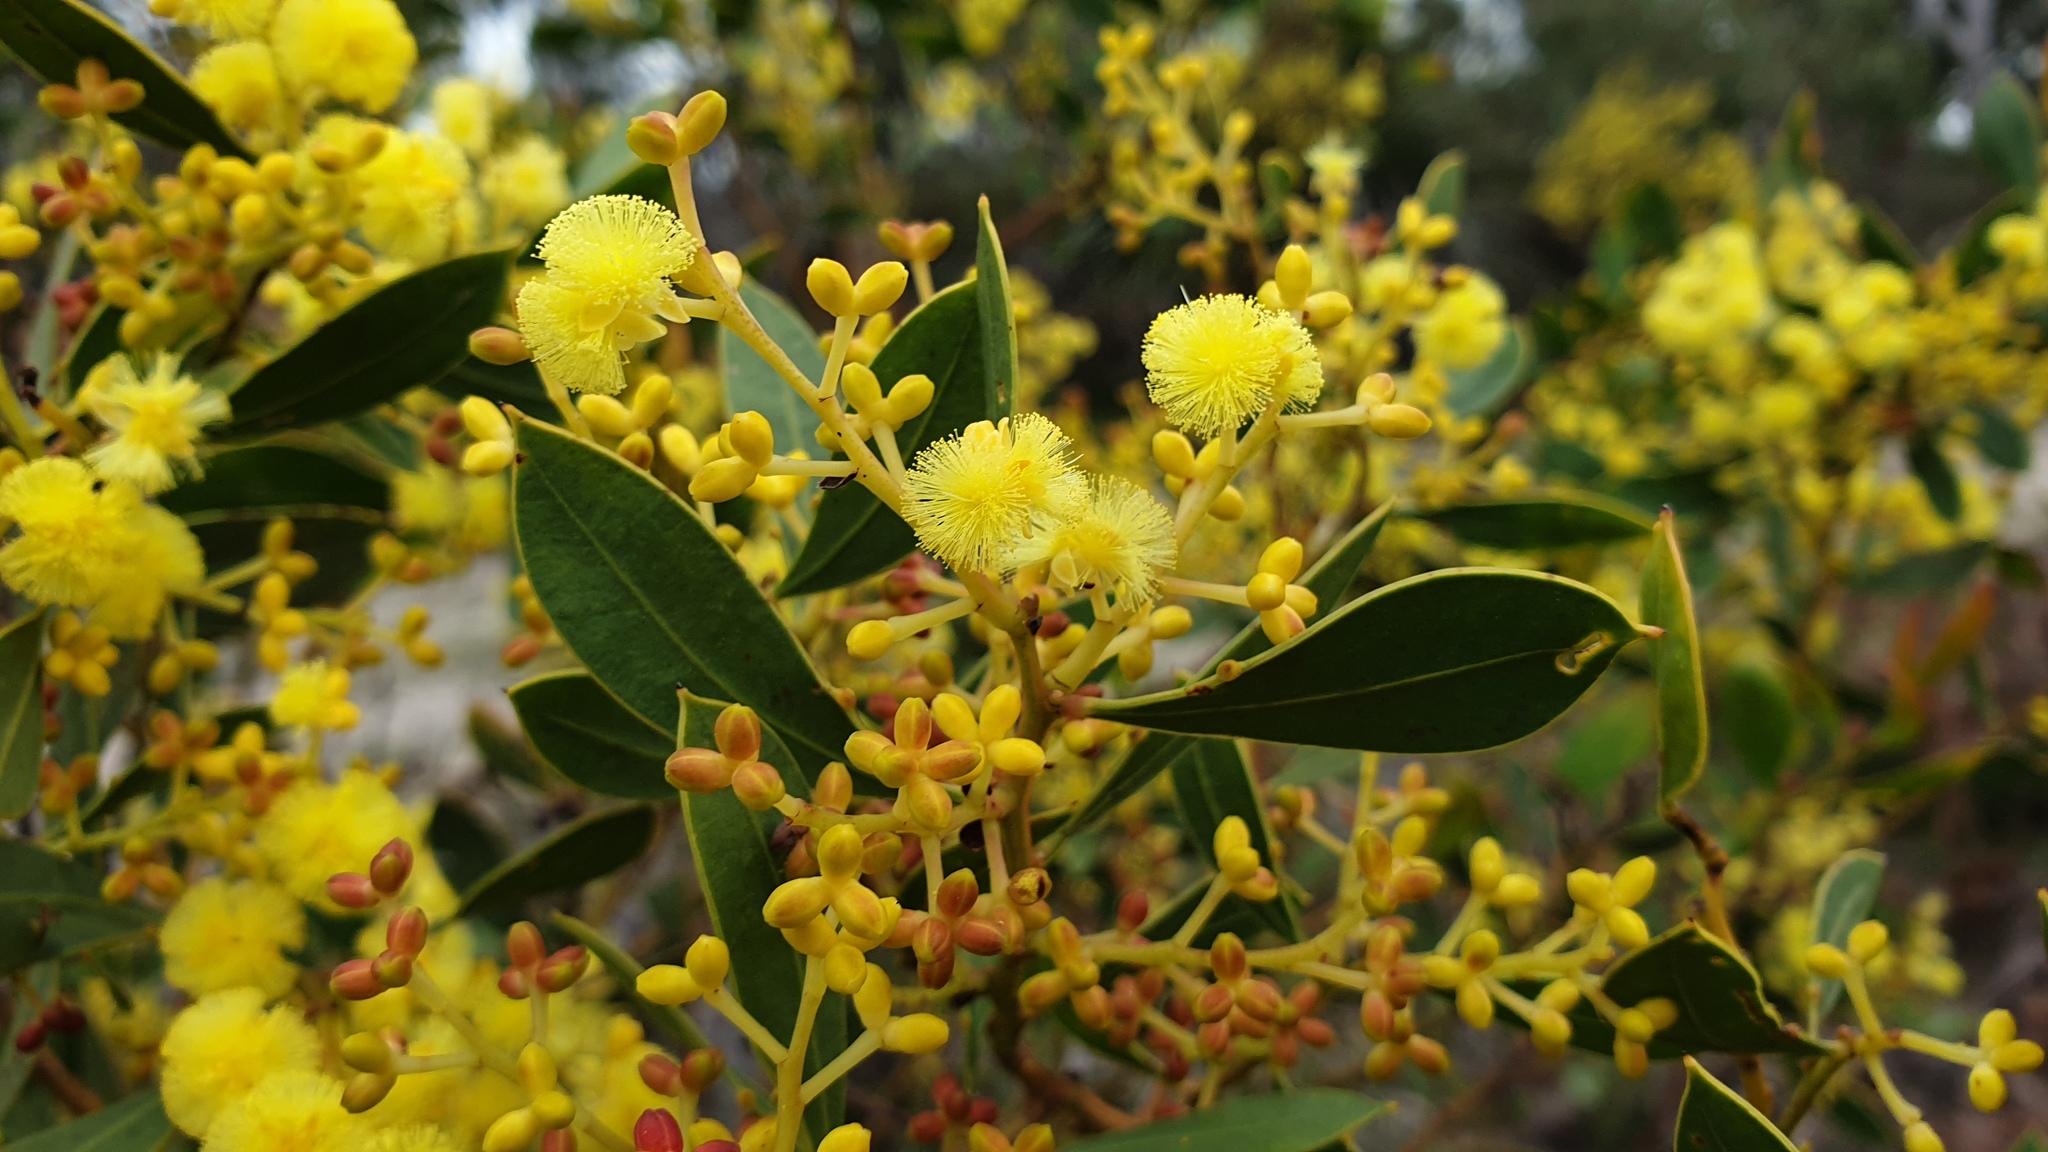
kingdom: Plantae
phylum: Tracheophyta
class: Magnoliopsida
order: Fabales
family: Fabaceae
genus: Acacia
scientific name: Acacia myrtifolia
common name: Myrtle wattle
